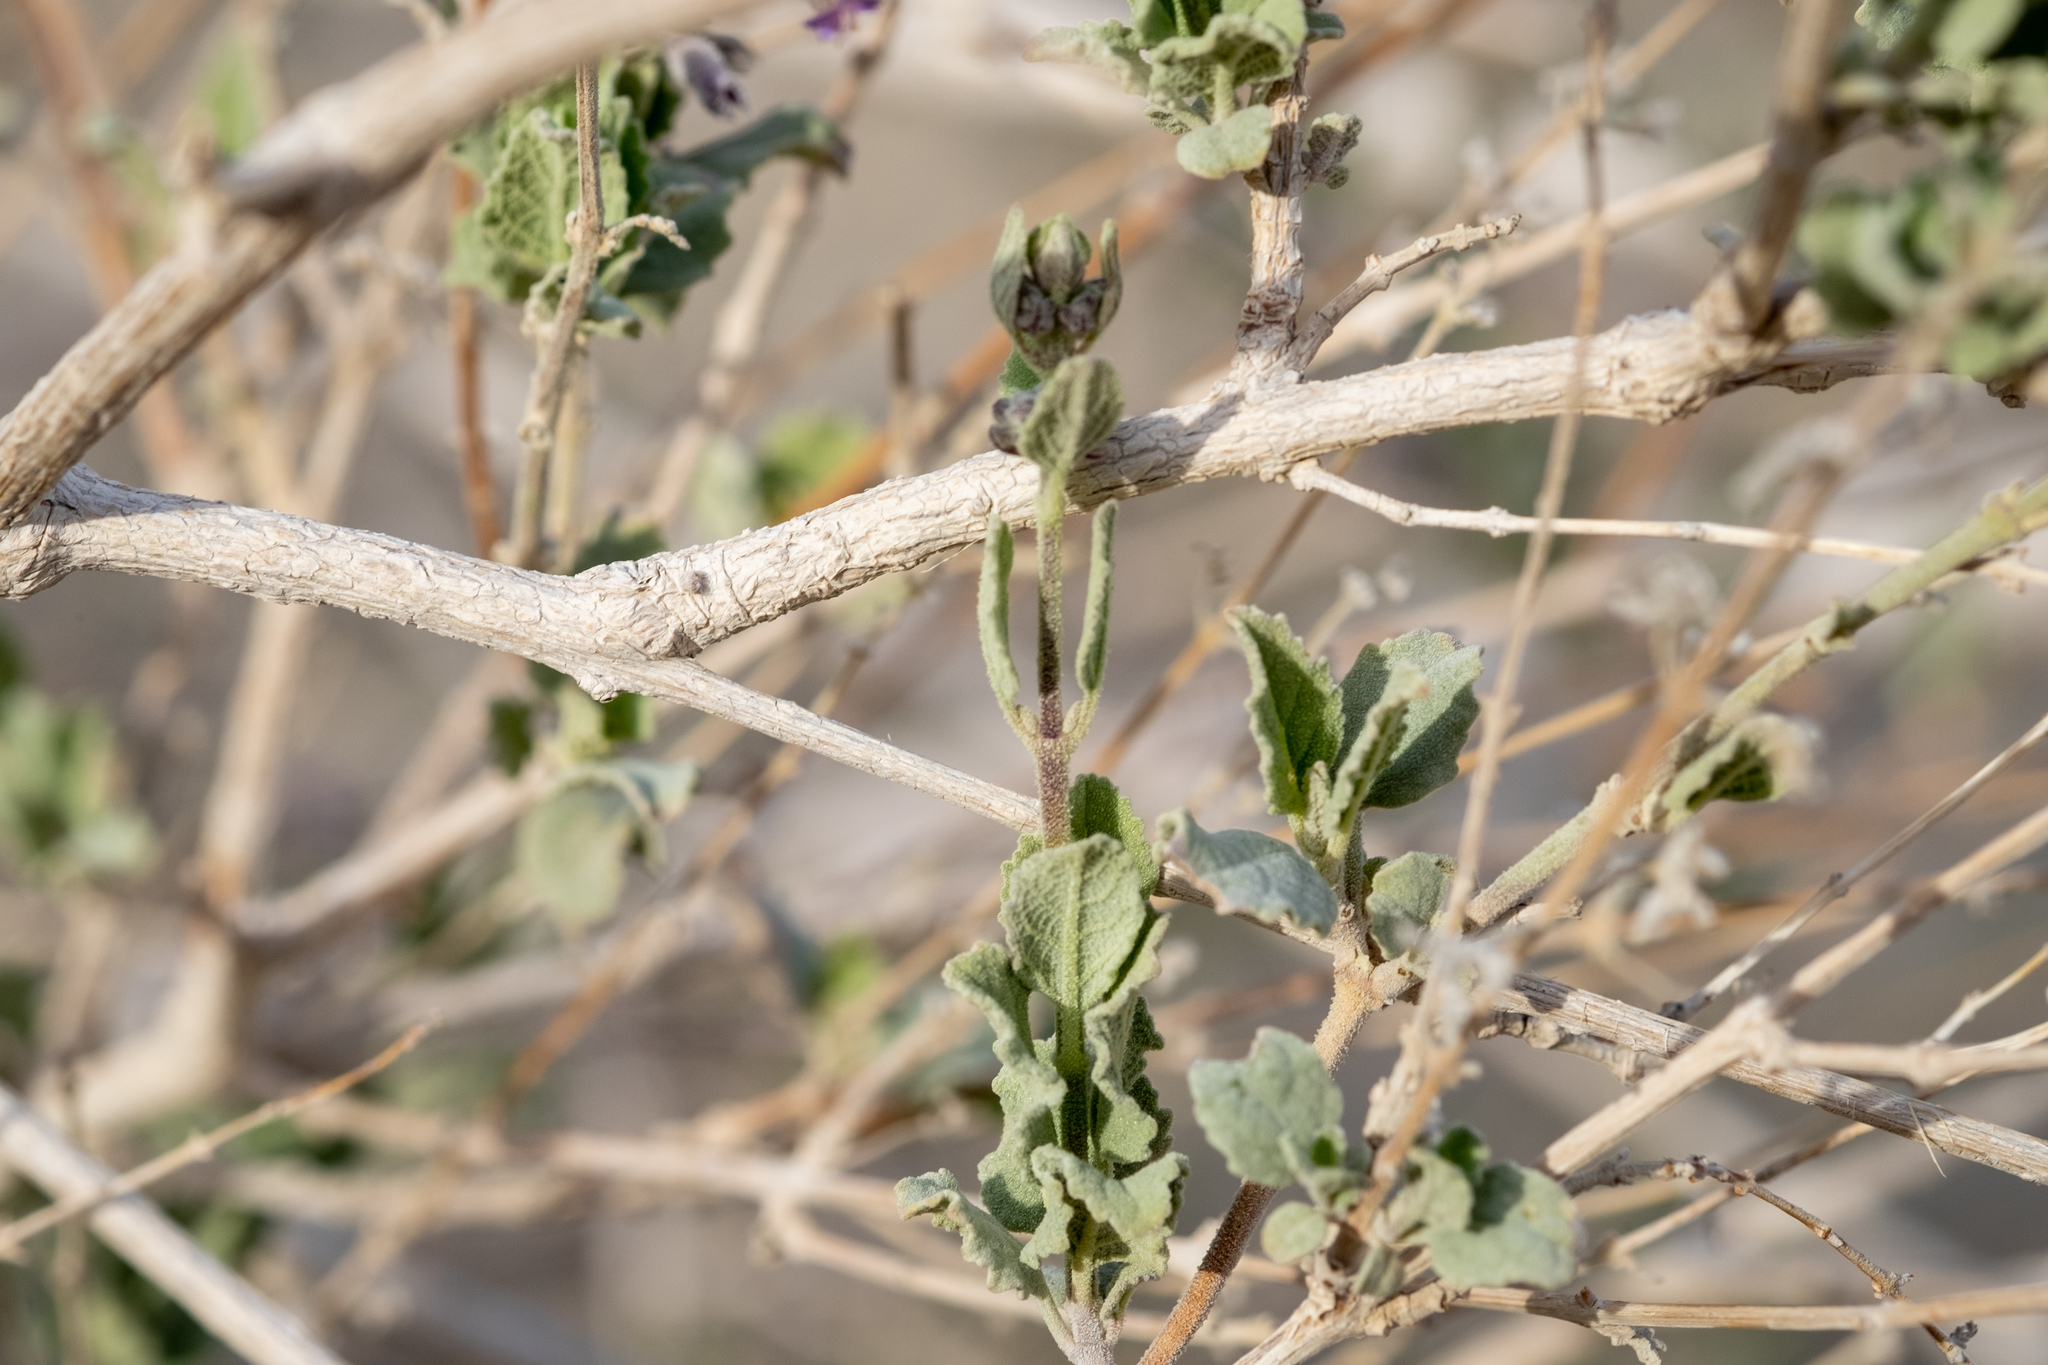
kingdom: Plantae
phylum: Tracheophyta
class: Magnoliopsida
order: Lamiales
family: Lamiaceae
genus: Condea
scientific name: Condea emoryi
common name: Chia
